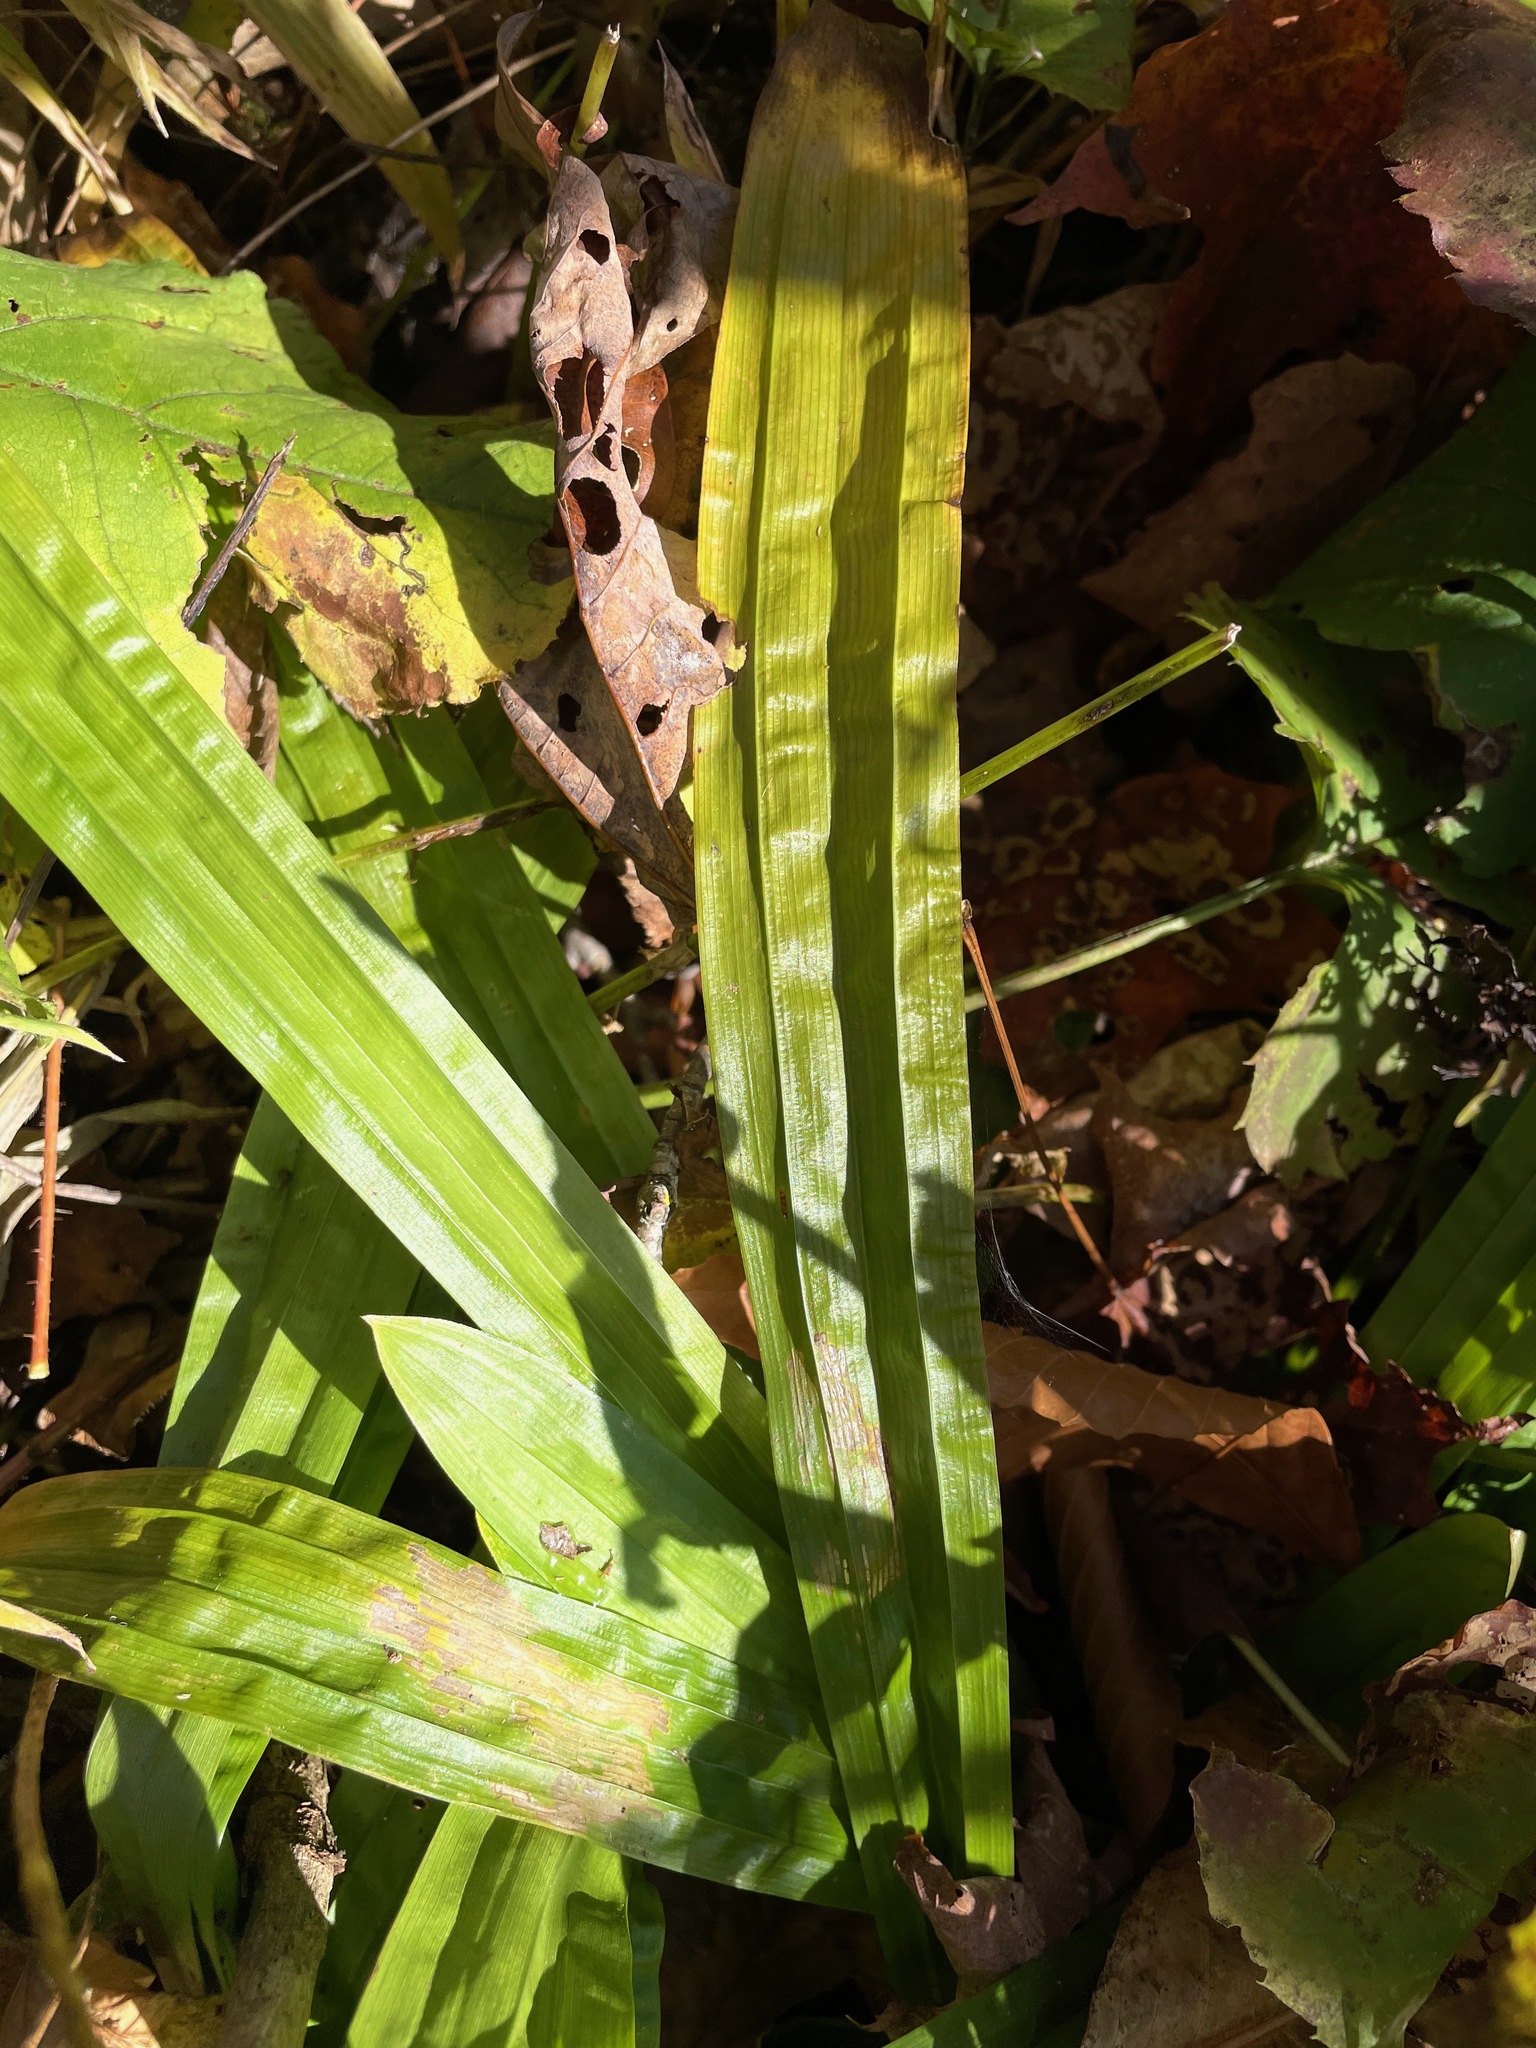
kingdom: Plantae
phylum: Tracheophyta
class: Liliopsida
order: Poales
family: Cyperaceae
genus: Carex
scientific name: Carex plantaginea
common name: Plantain-leaved sedge
